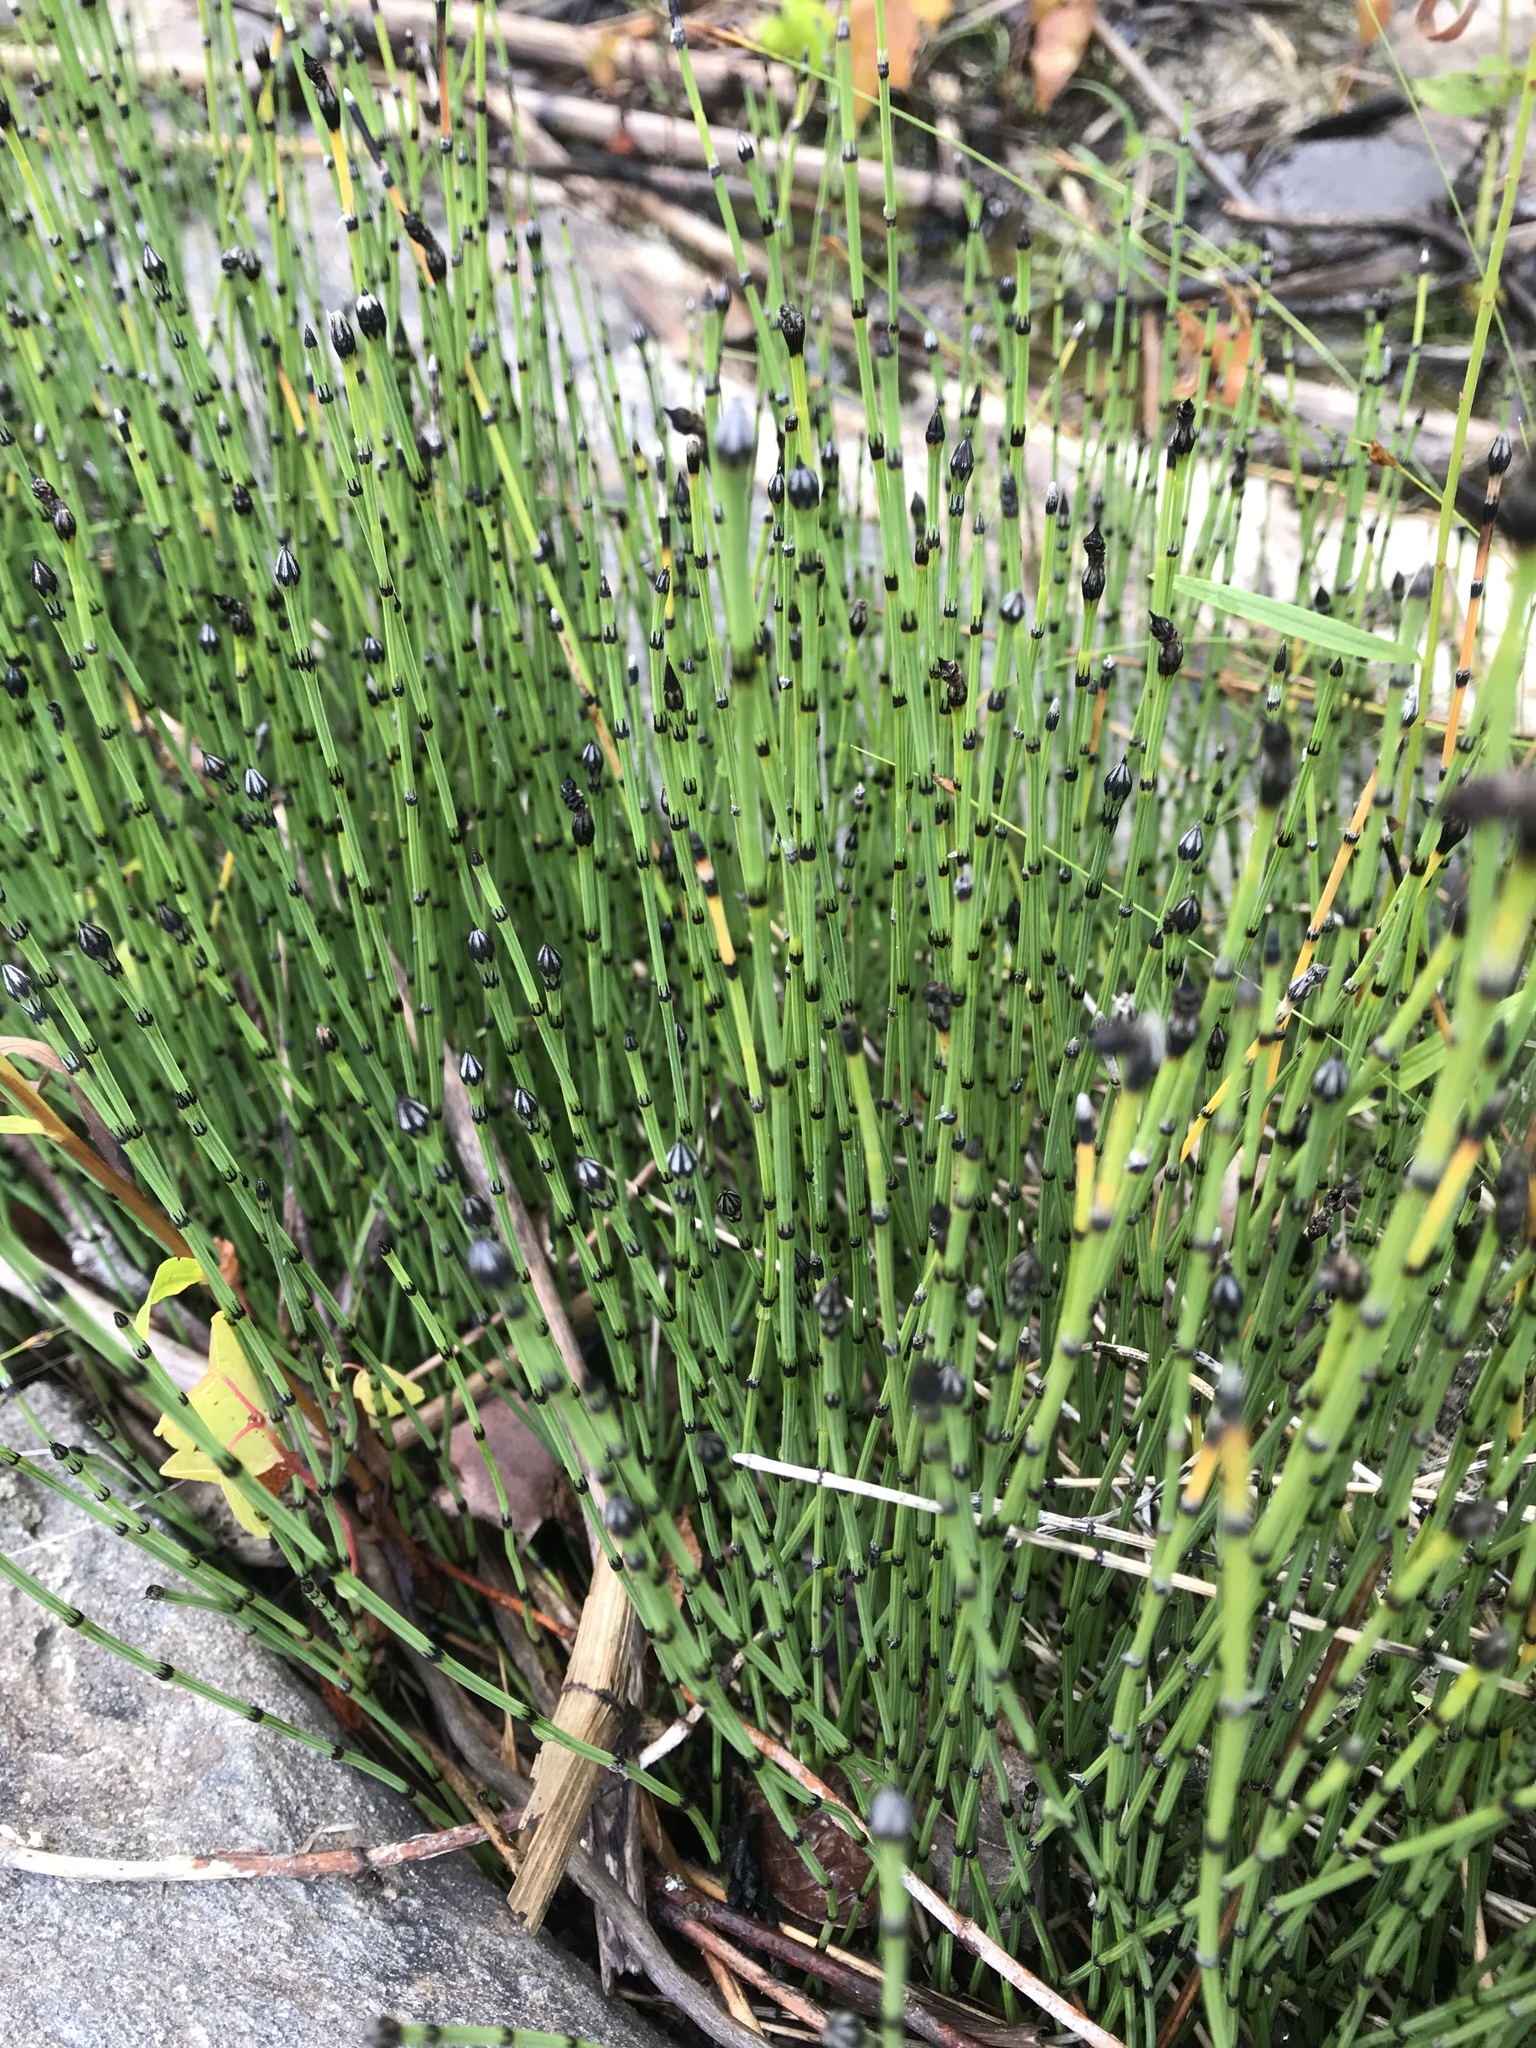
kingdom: Plantae
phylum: Tracheophyta
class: Polypodiopsida
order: Equisetales
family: Equisetaceae
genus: Equisetum
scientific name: Equisetum variegatum
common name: Variegated horsetail
